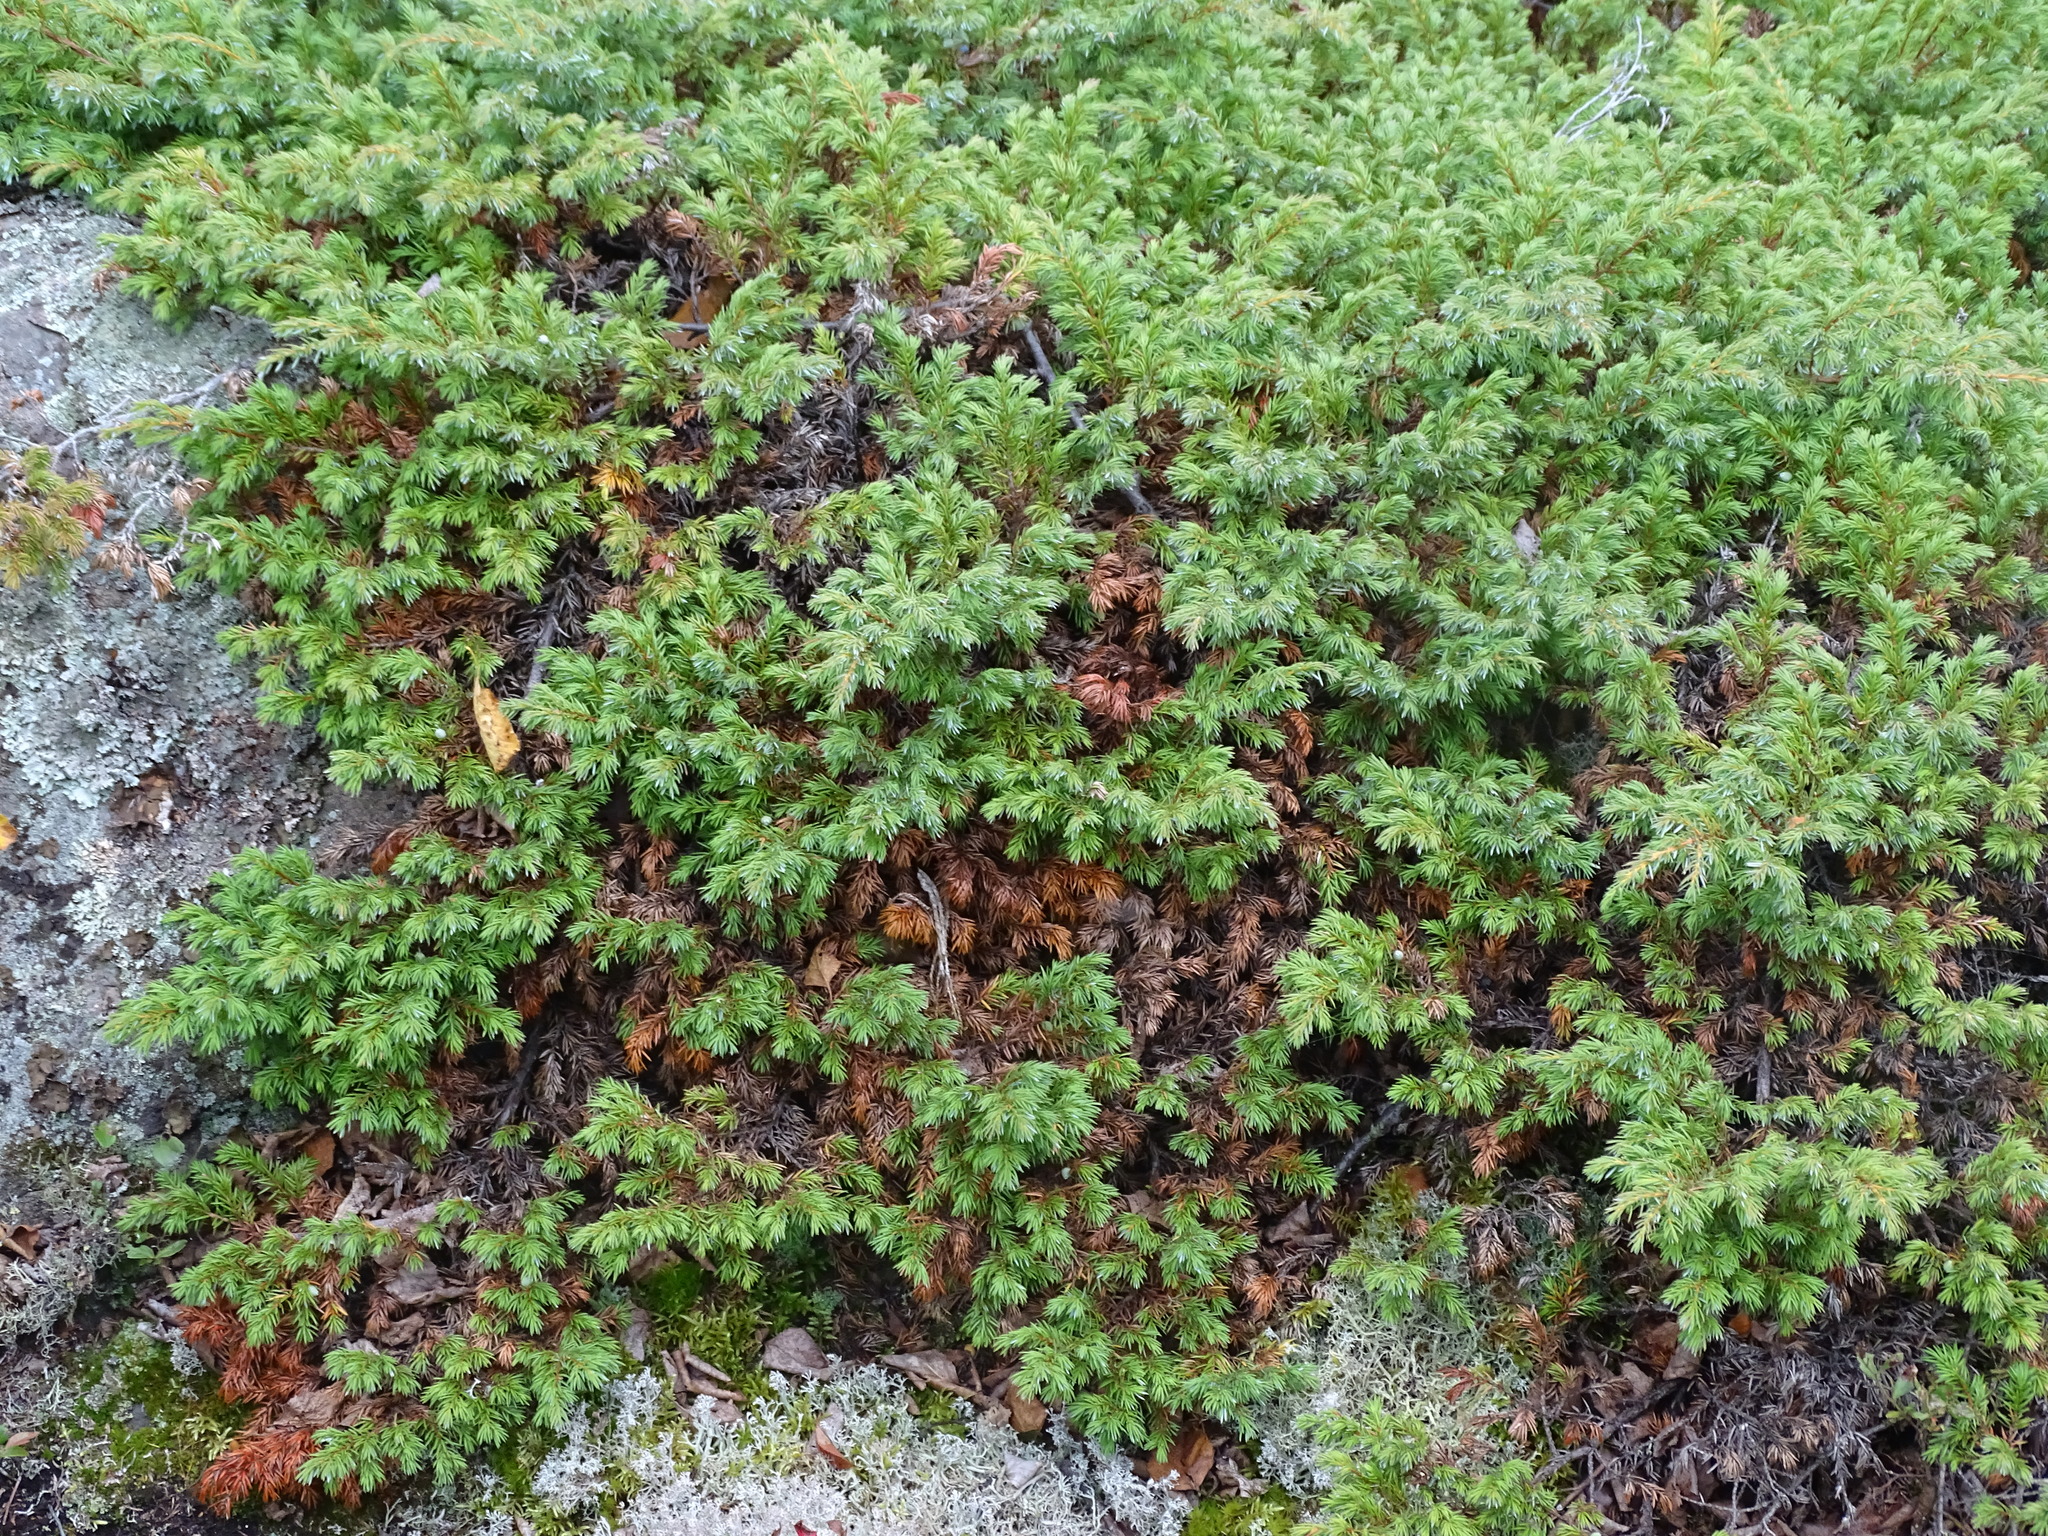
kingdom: Plantae
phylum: Tracheophyta
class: Pinopsida
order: Pinales
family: Cupressaceae
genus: Juniperus
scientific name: Juniperus communis
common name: Common juniper
